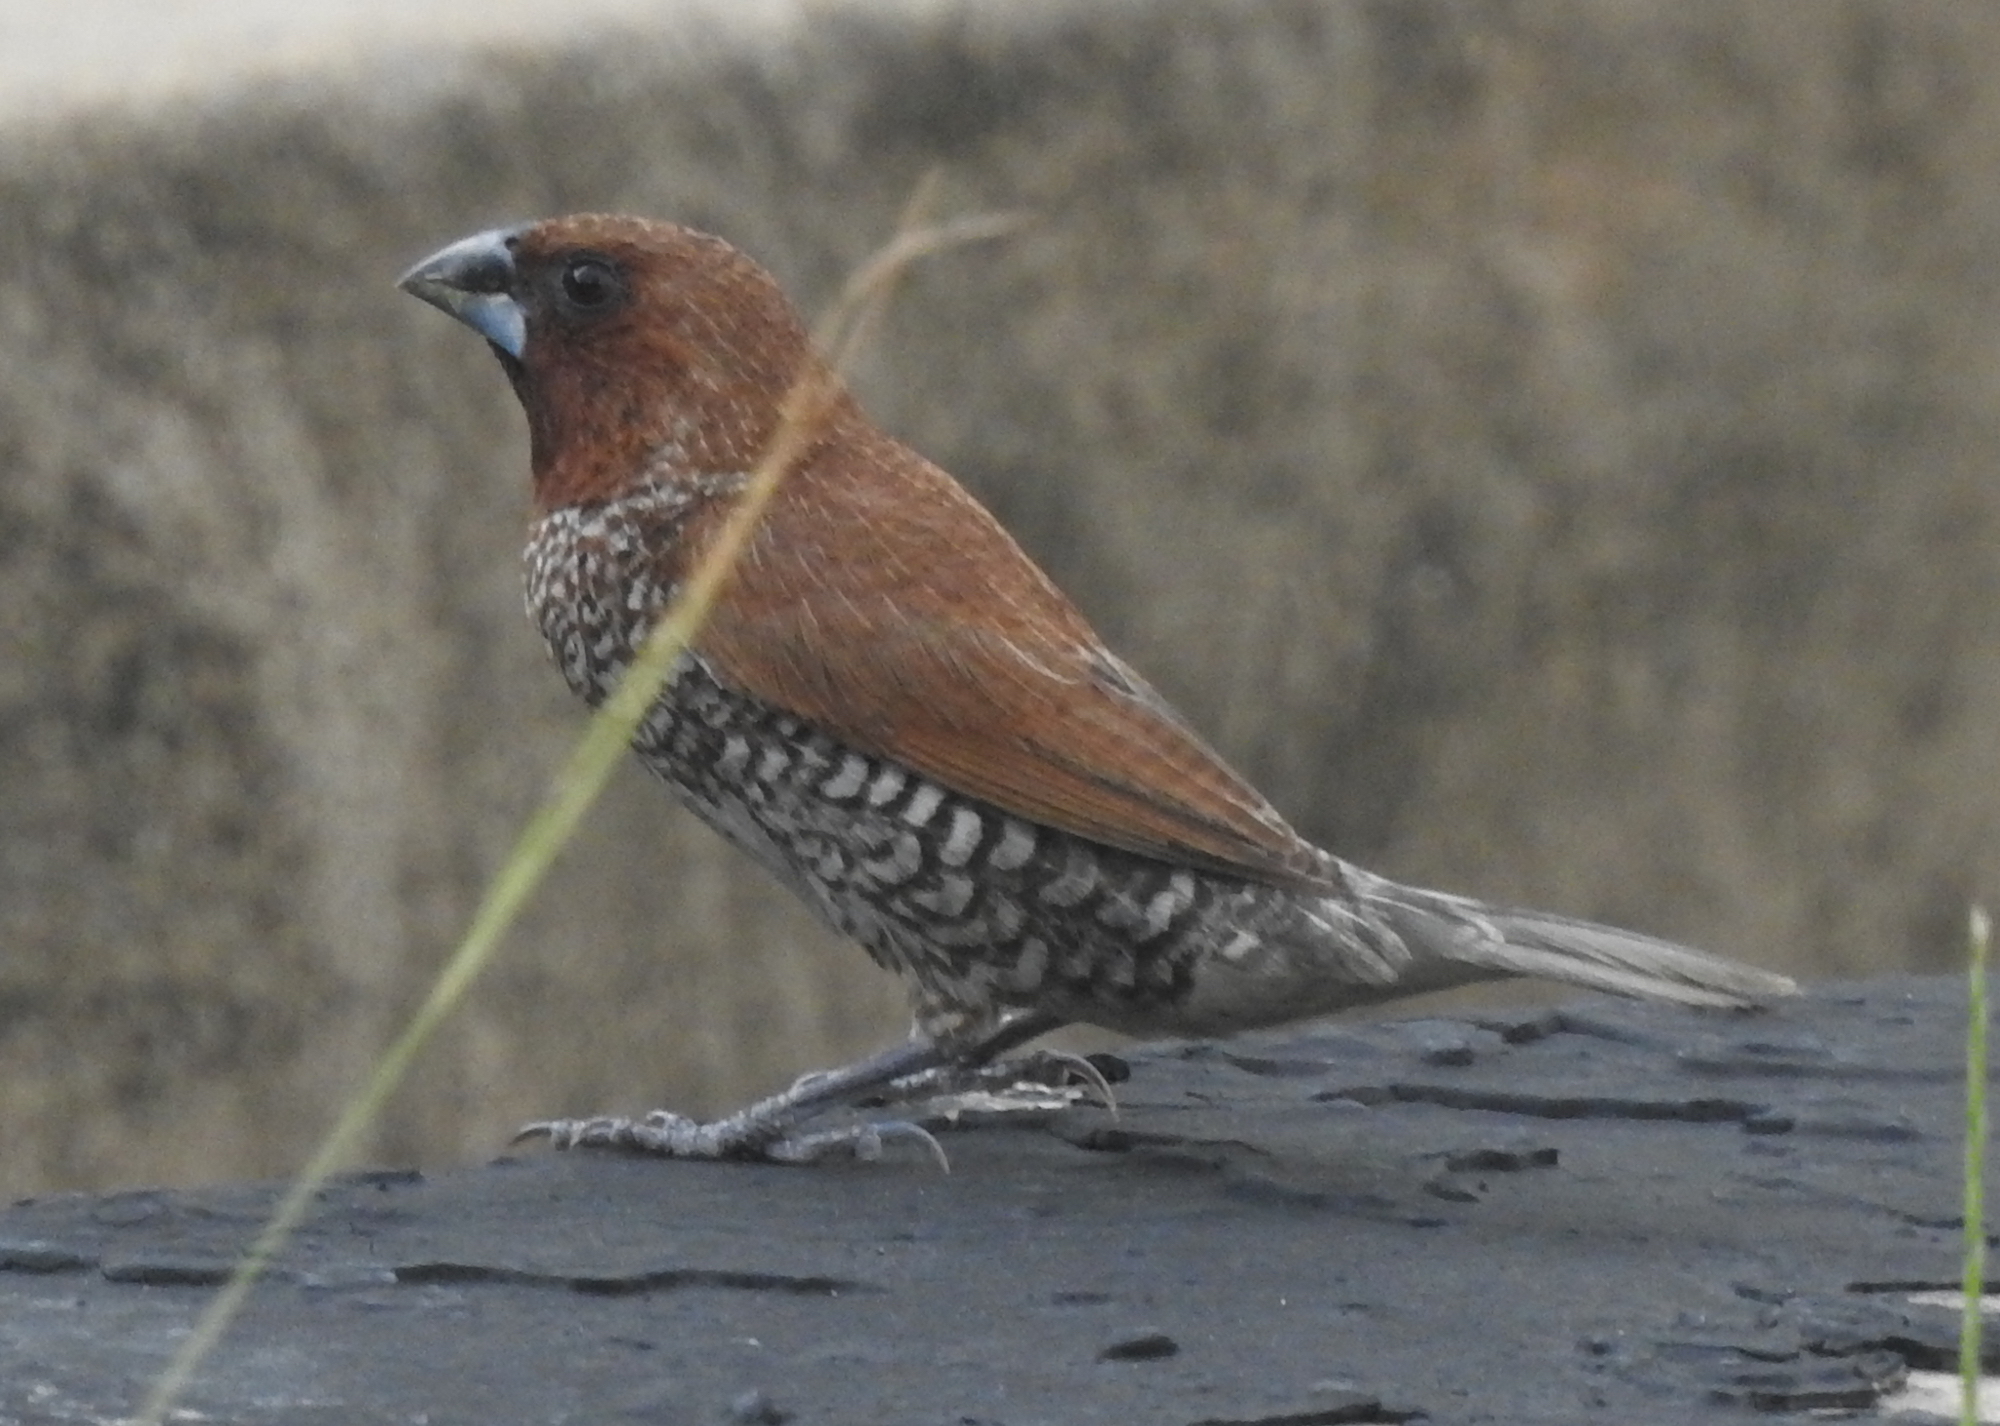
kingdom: Animalia
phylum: Chordata
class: Aves
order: Passeriformes
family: Estrildidae
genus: Lonchura
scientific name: Lonchura punctulata
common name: Scaly-breasted munia
